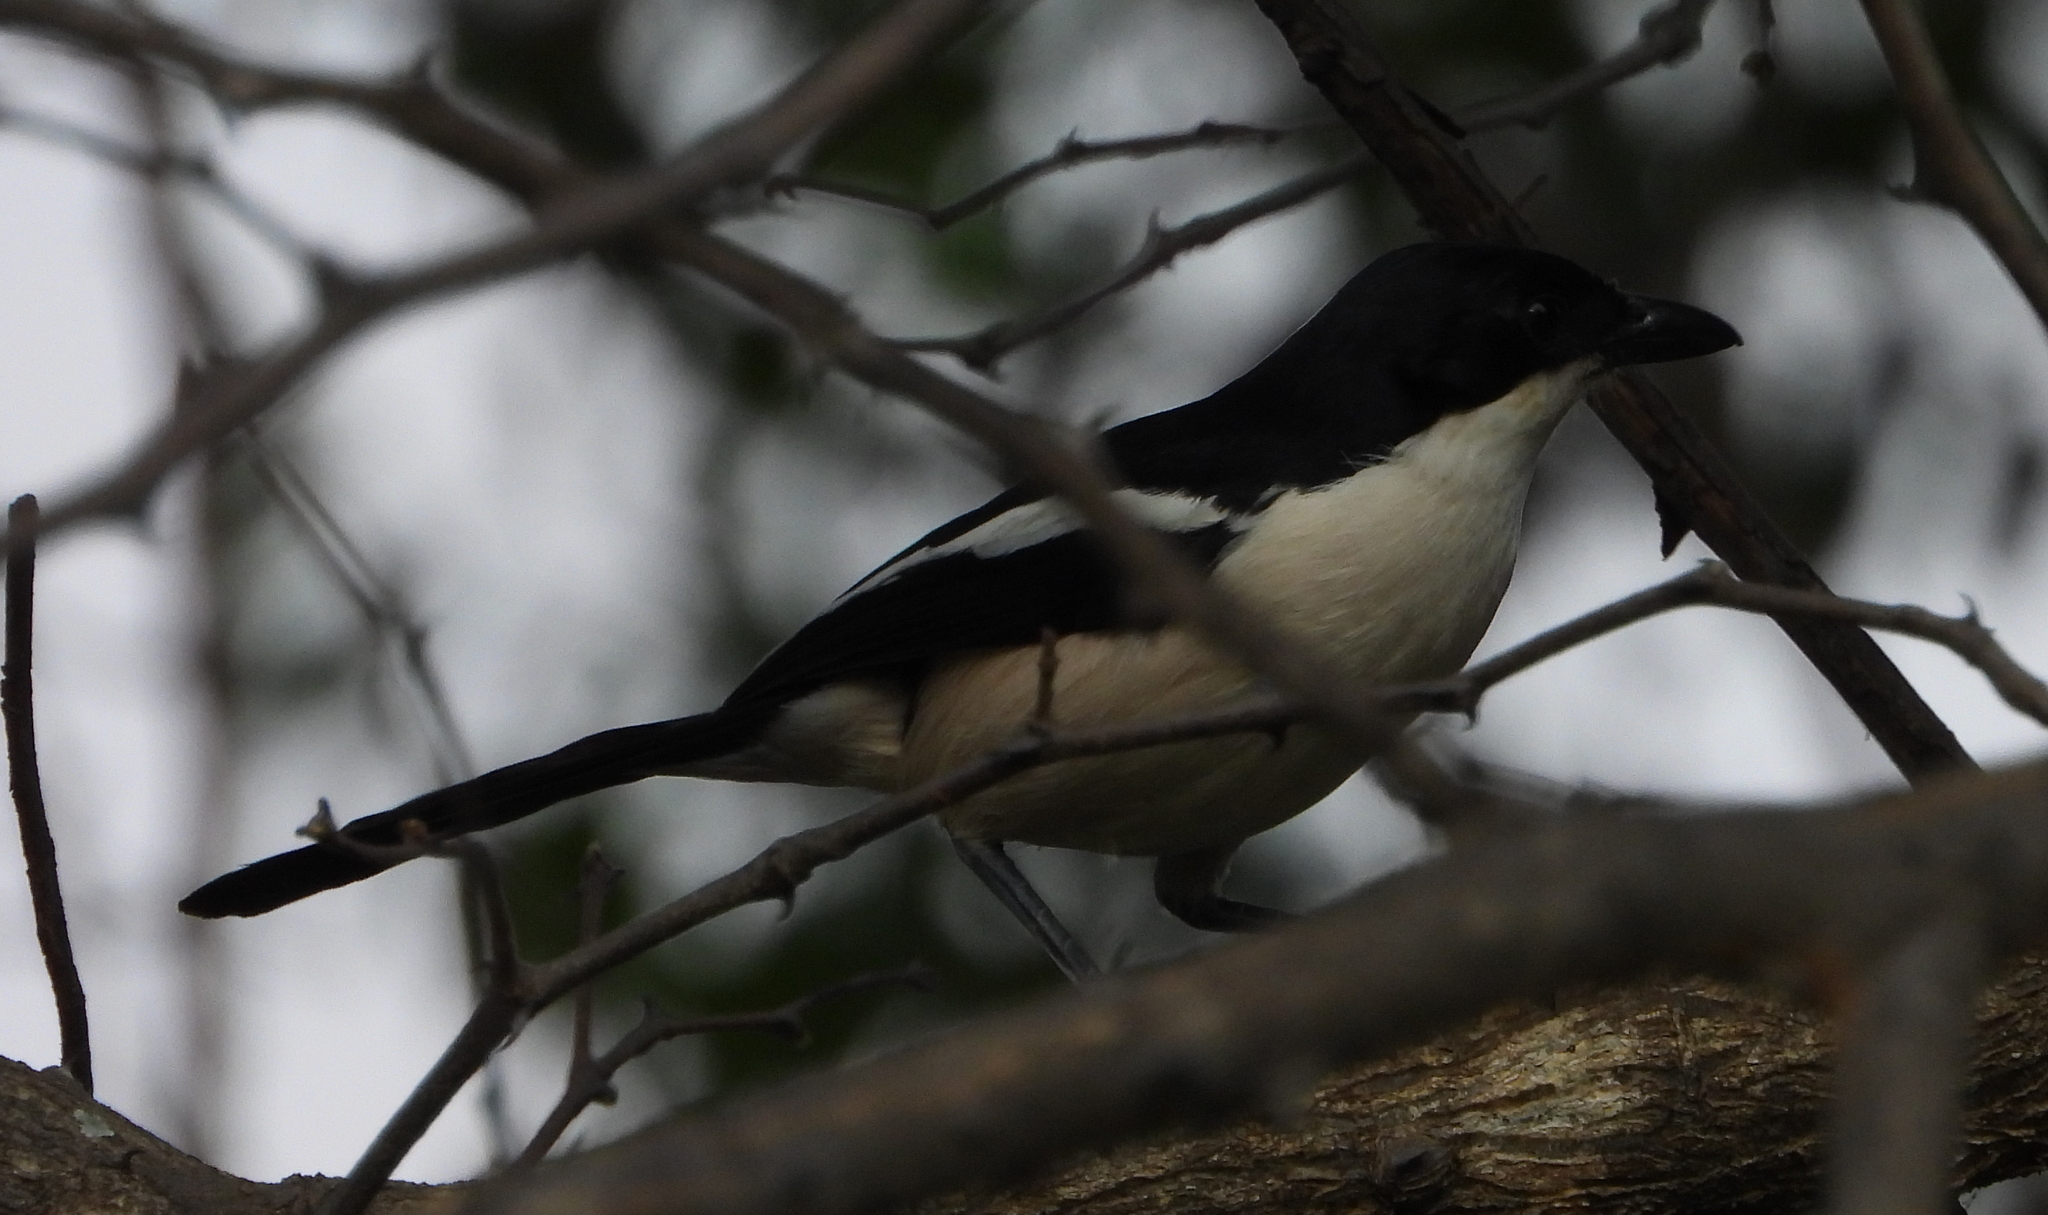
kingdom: Animalia
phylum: Chordata
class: Aves
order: Passeriformes
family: Malaconotidae
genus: Laniarius
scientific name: Laniarius major
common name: Tropical boubou
